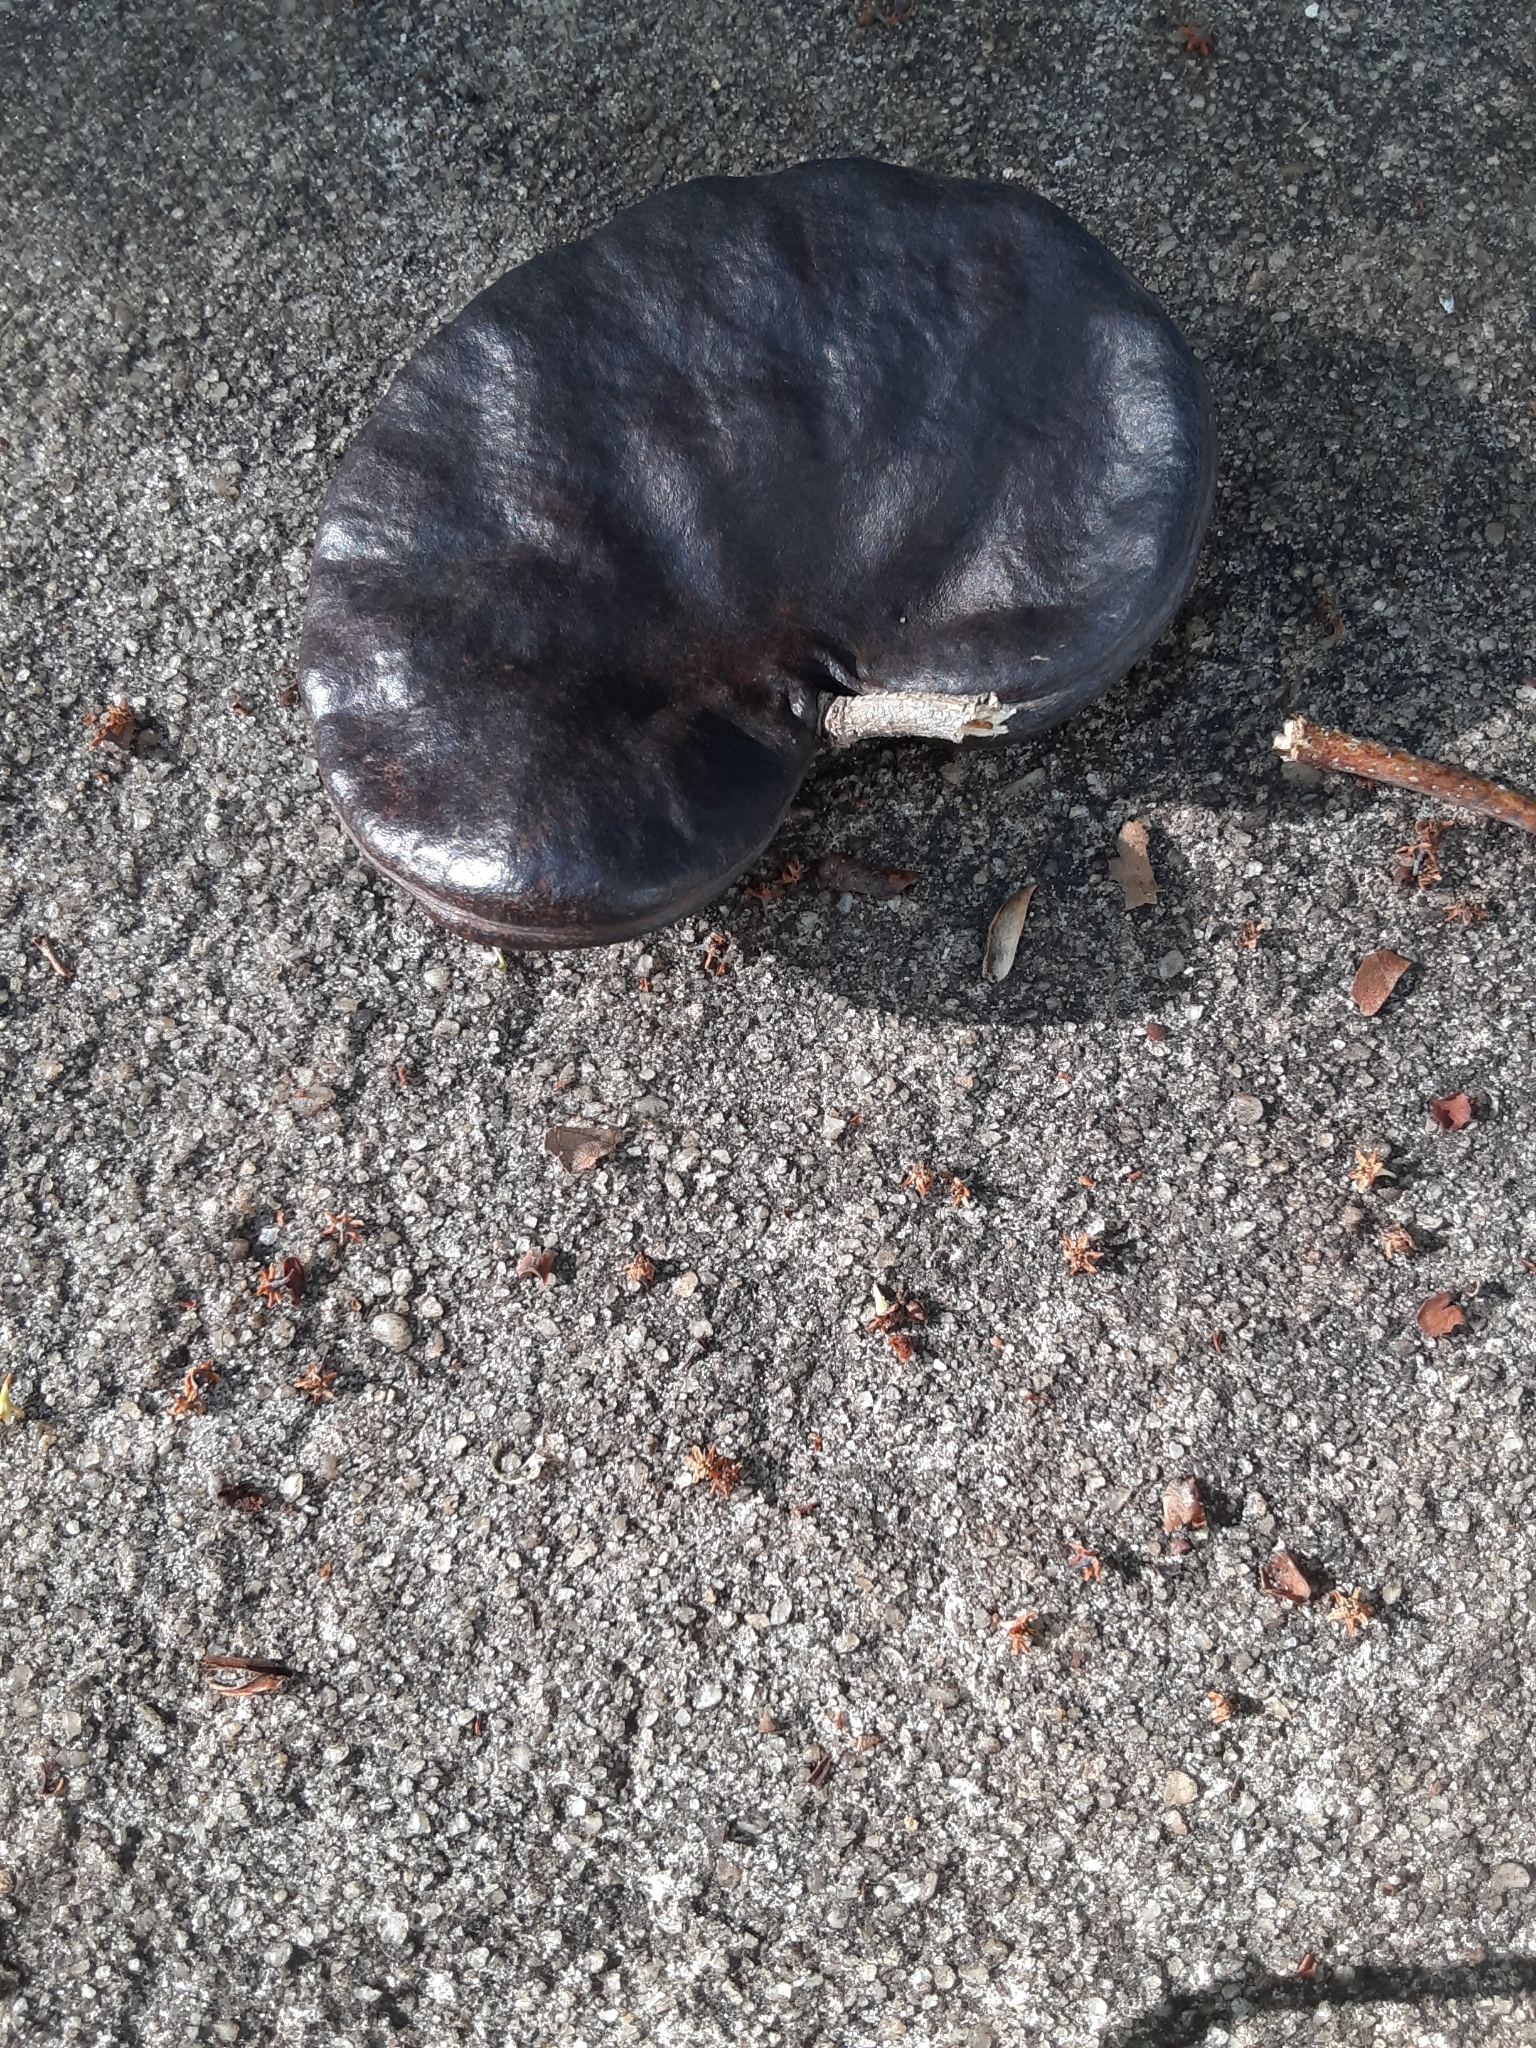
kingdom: Plantae
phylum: Tracheophyta
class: Magnoliopsida
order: Fabales
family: Fabaceae
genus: Enterolobium
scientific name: Enterolobium contortisiliquum
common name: Pacara earpod tree
